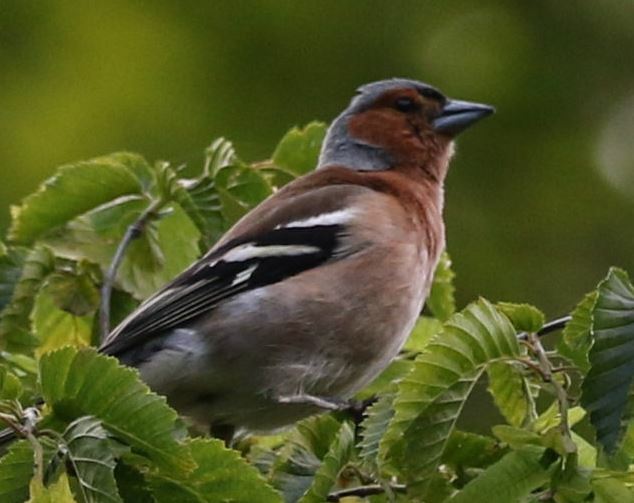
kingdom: Animalia
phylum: Chordata
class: Aves
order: Passeriformes
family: Fringillidae
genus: Fringilla
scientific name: Fringilla coelebs
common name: Common chaffinch
